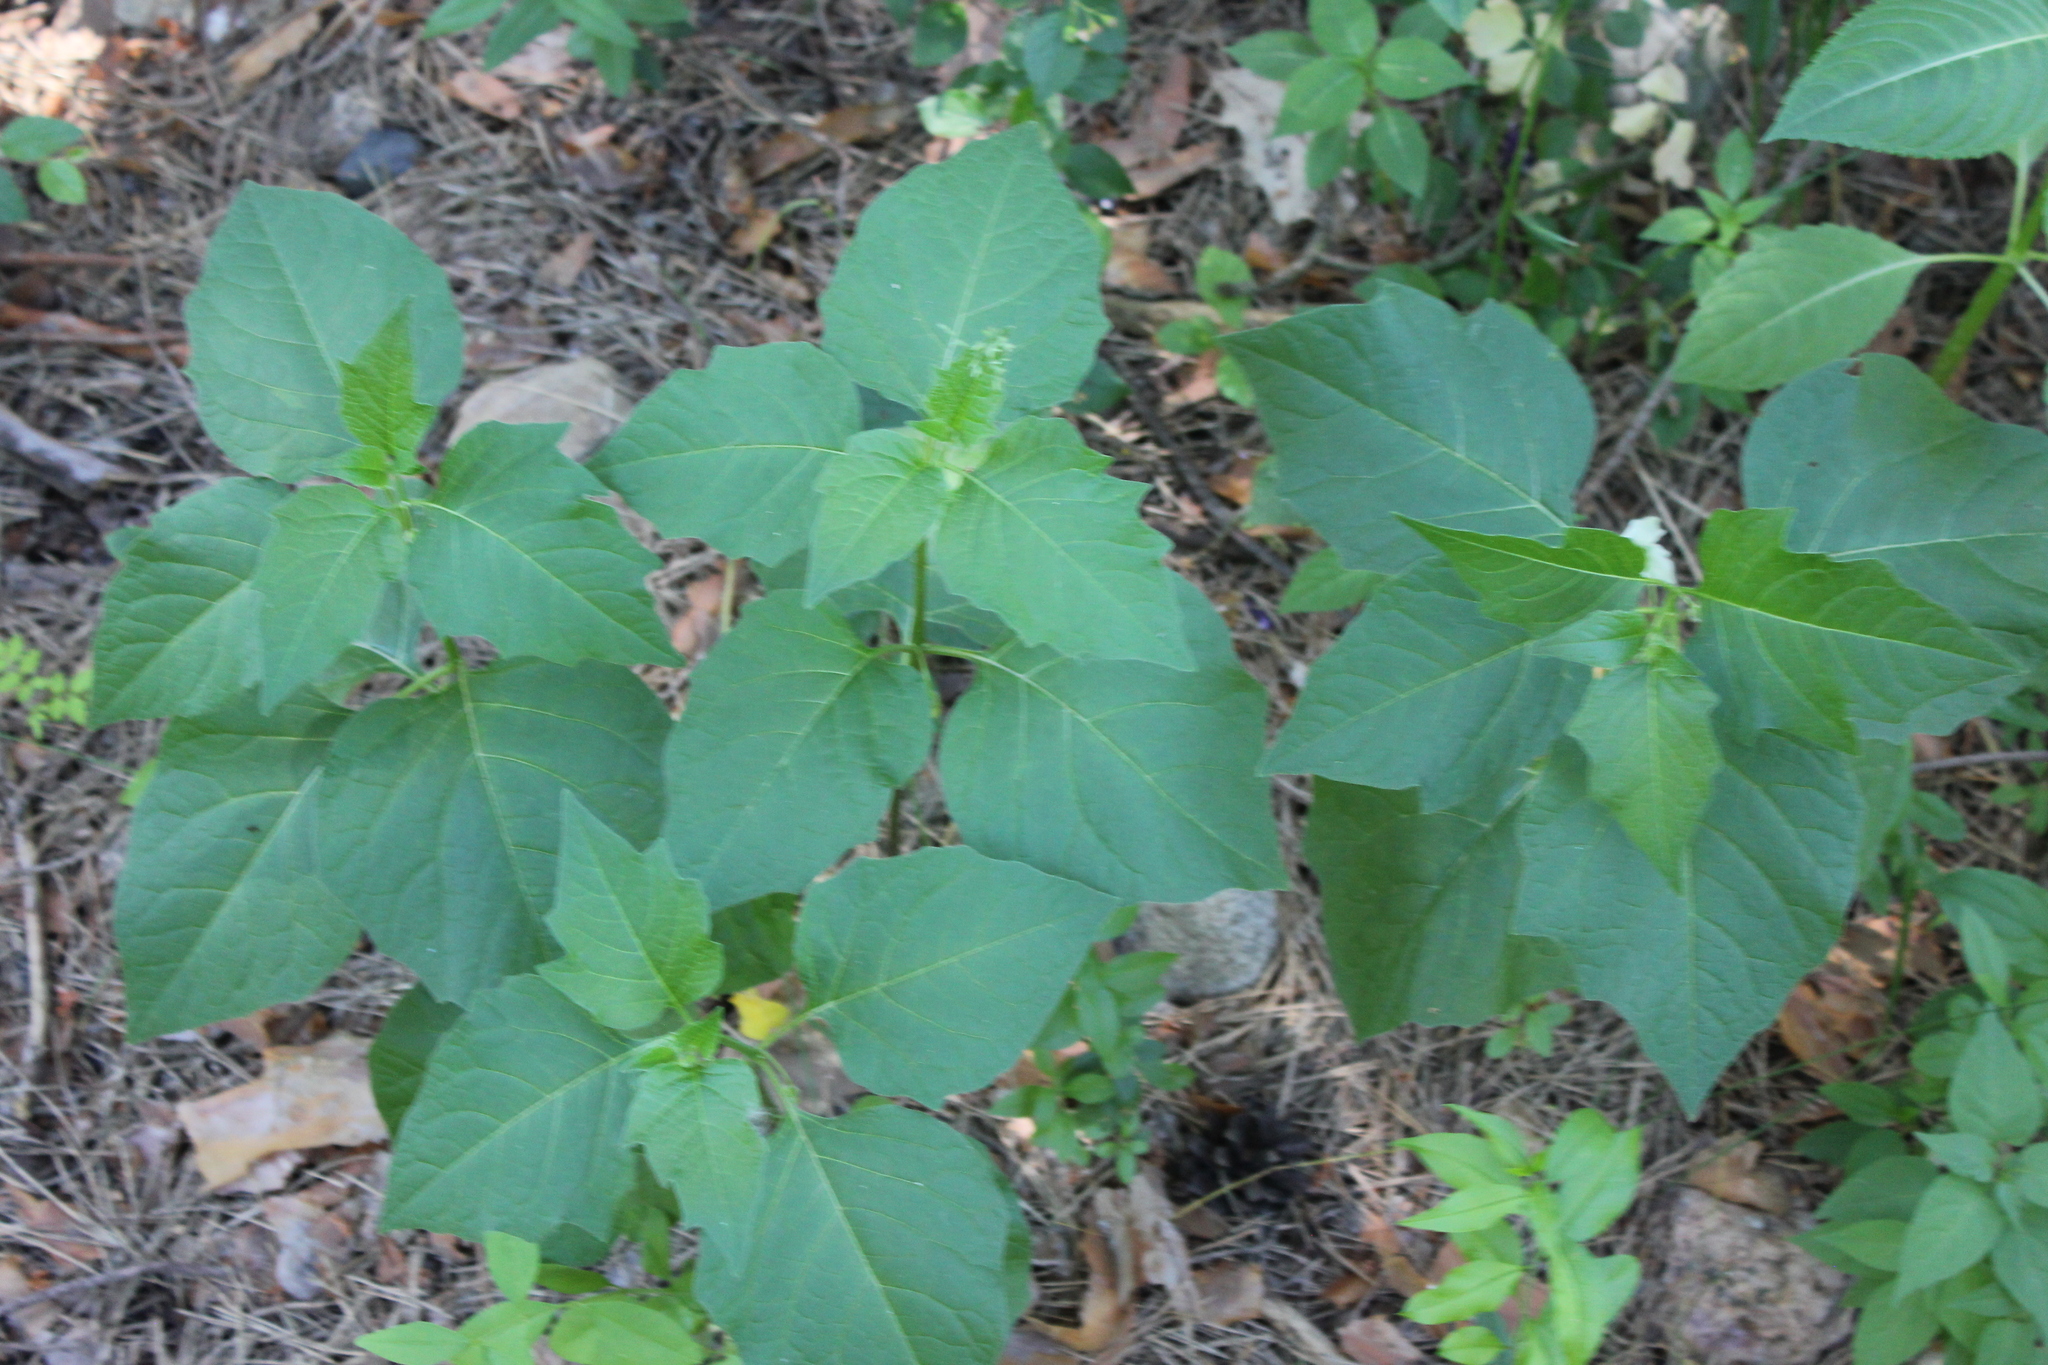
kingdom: Plantae
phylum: Tracheophyta
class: Magnoliopsida
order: Solanales
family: Solanaceae
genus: Alkekengi
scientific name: Alkekengi officinarum
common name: Japanese-lantern
